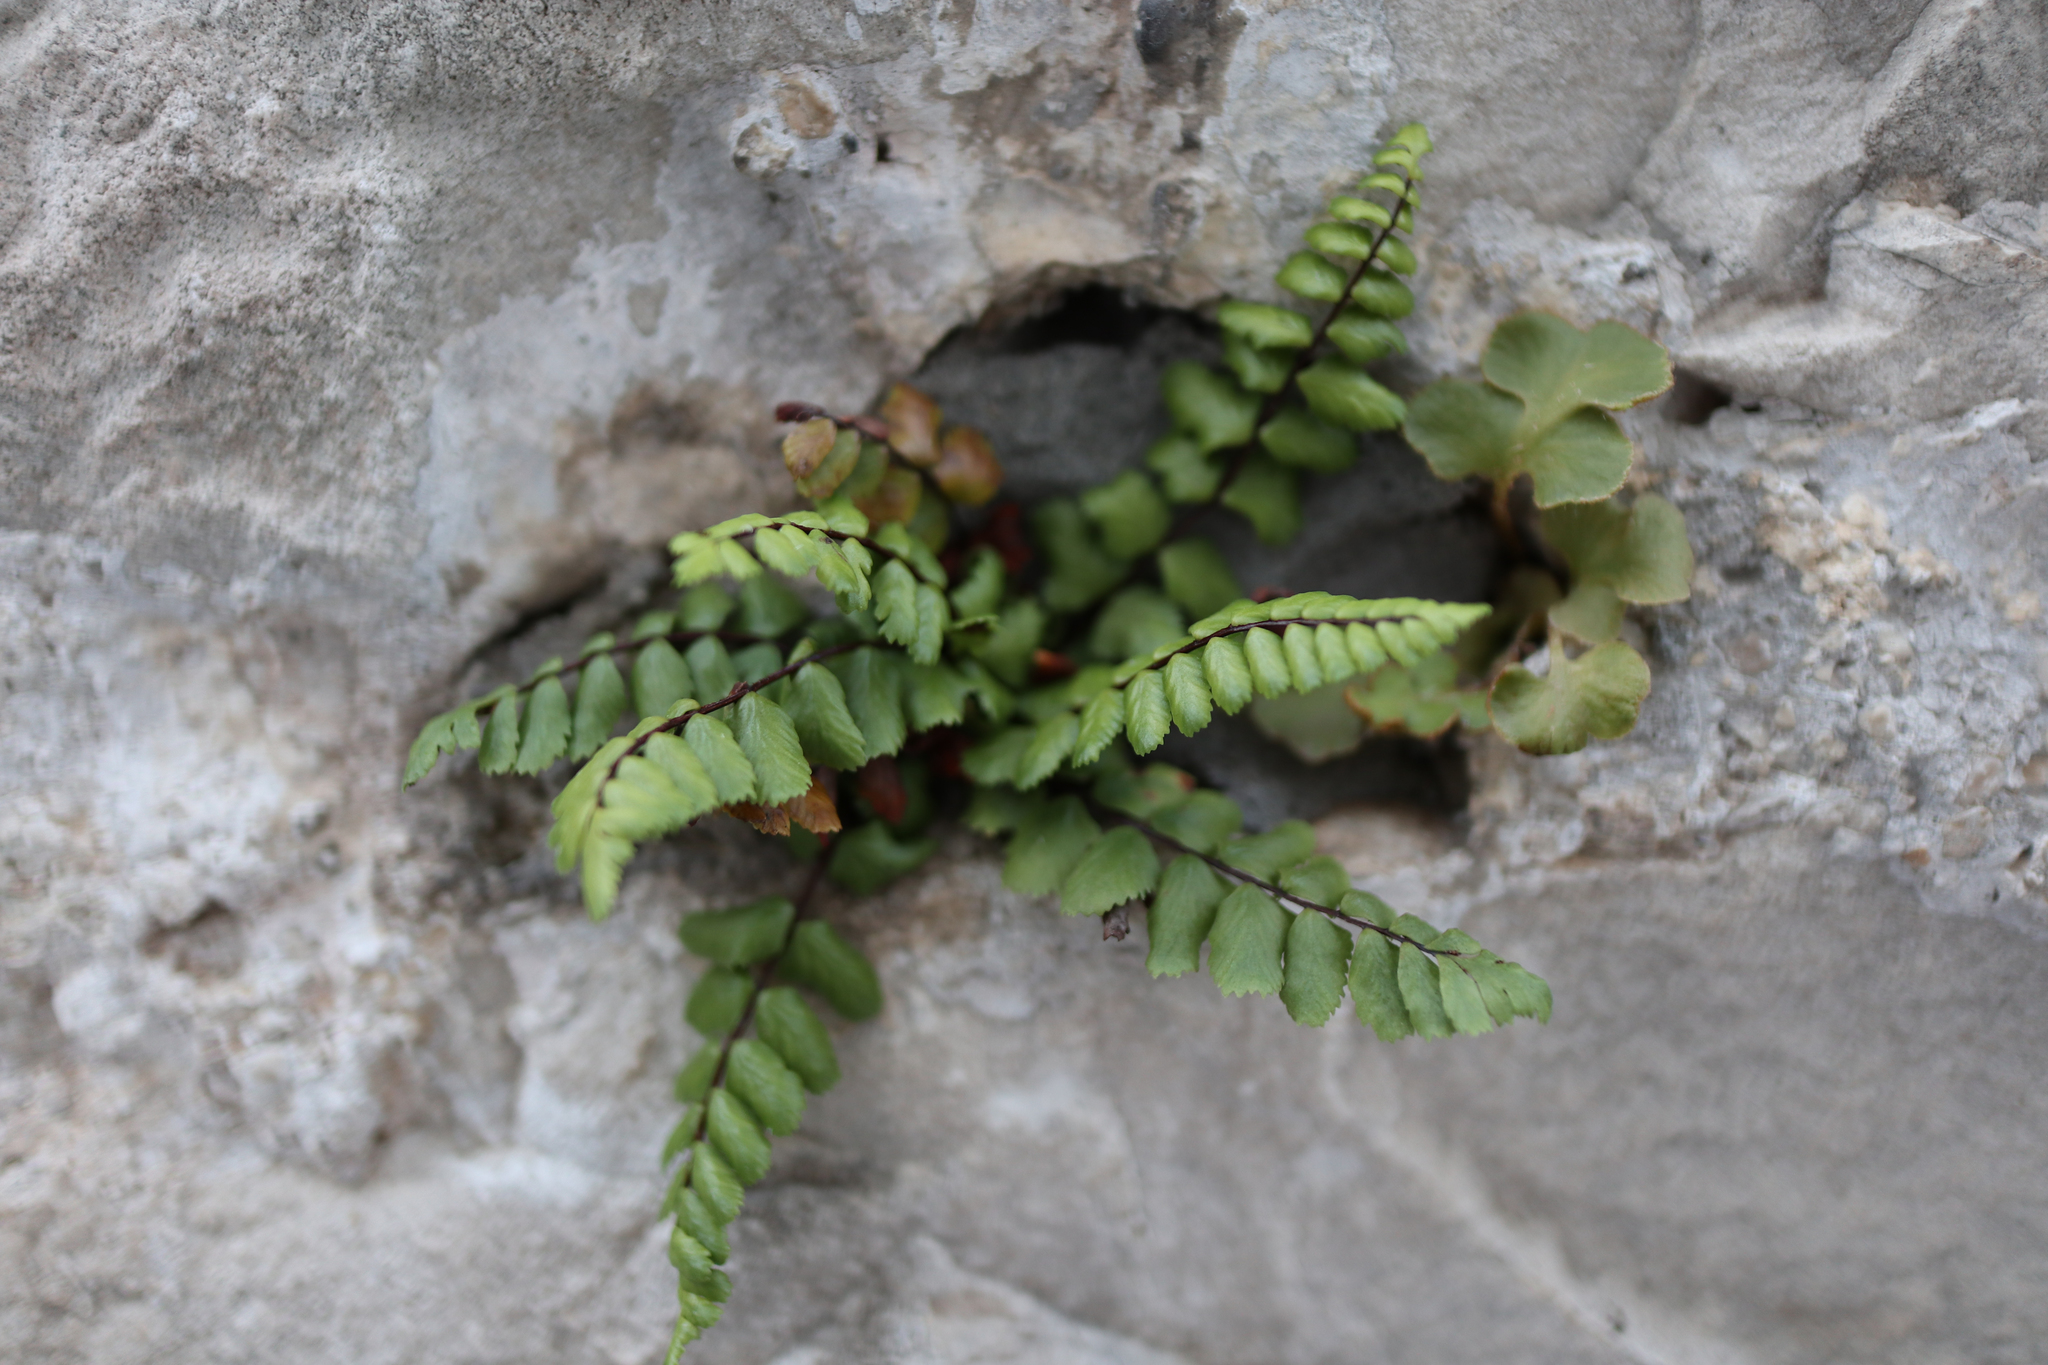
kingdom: Plantae
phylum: Tracheophyta
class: Polypodiopsida
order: Polypodiales
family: Aspleniaceae
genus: Asplenium
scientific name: Asplenium trichomanes
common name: Maidenhair spleenwort
